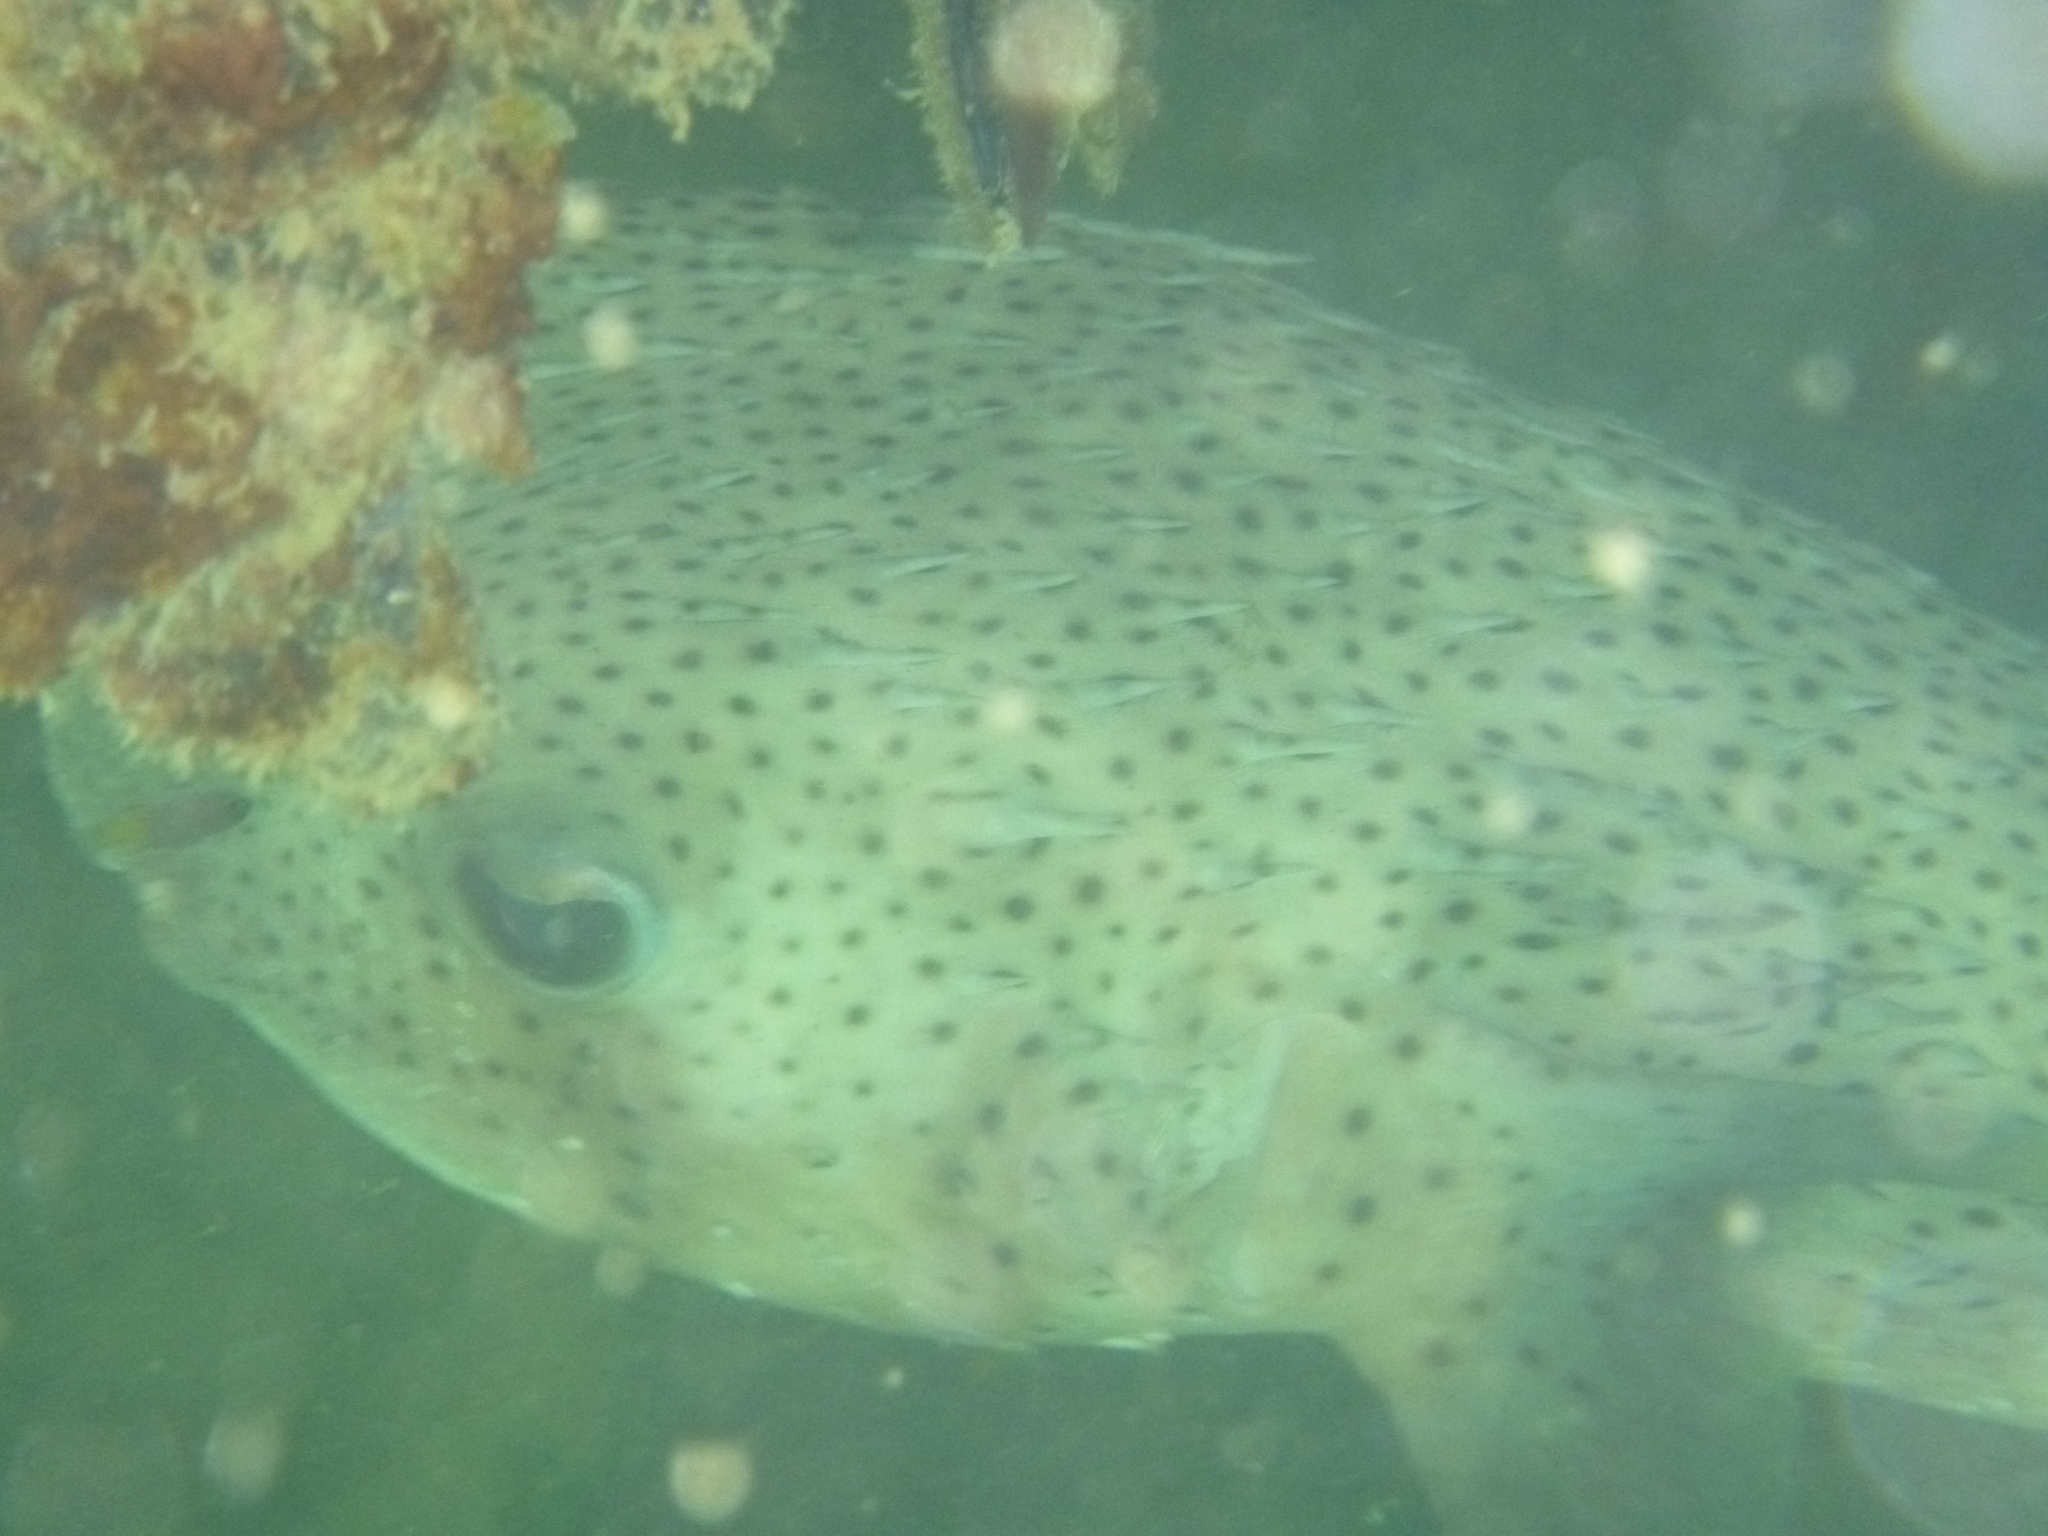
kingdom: Animalia
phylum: Chordata
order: Tetraodontiformes
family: Diodontidae
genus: Diodon
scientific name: Diodon hystrix
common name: Giant porcupinefish
